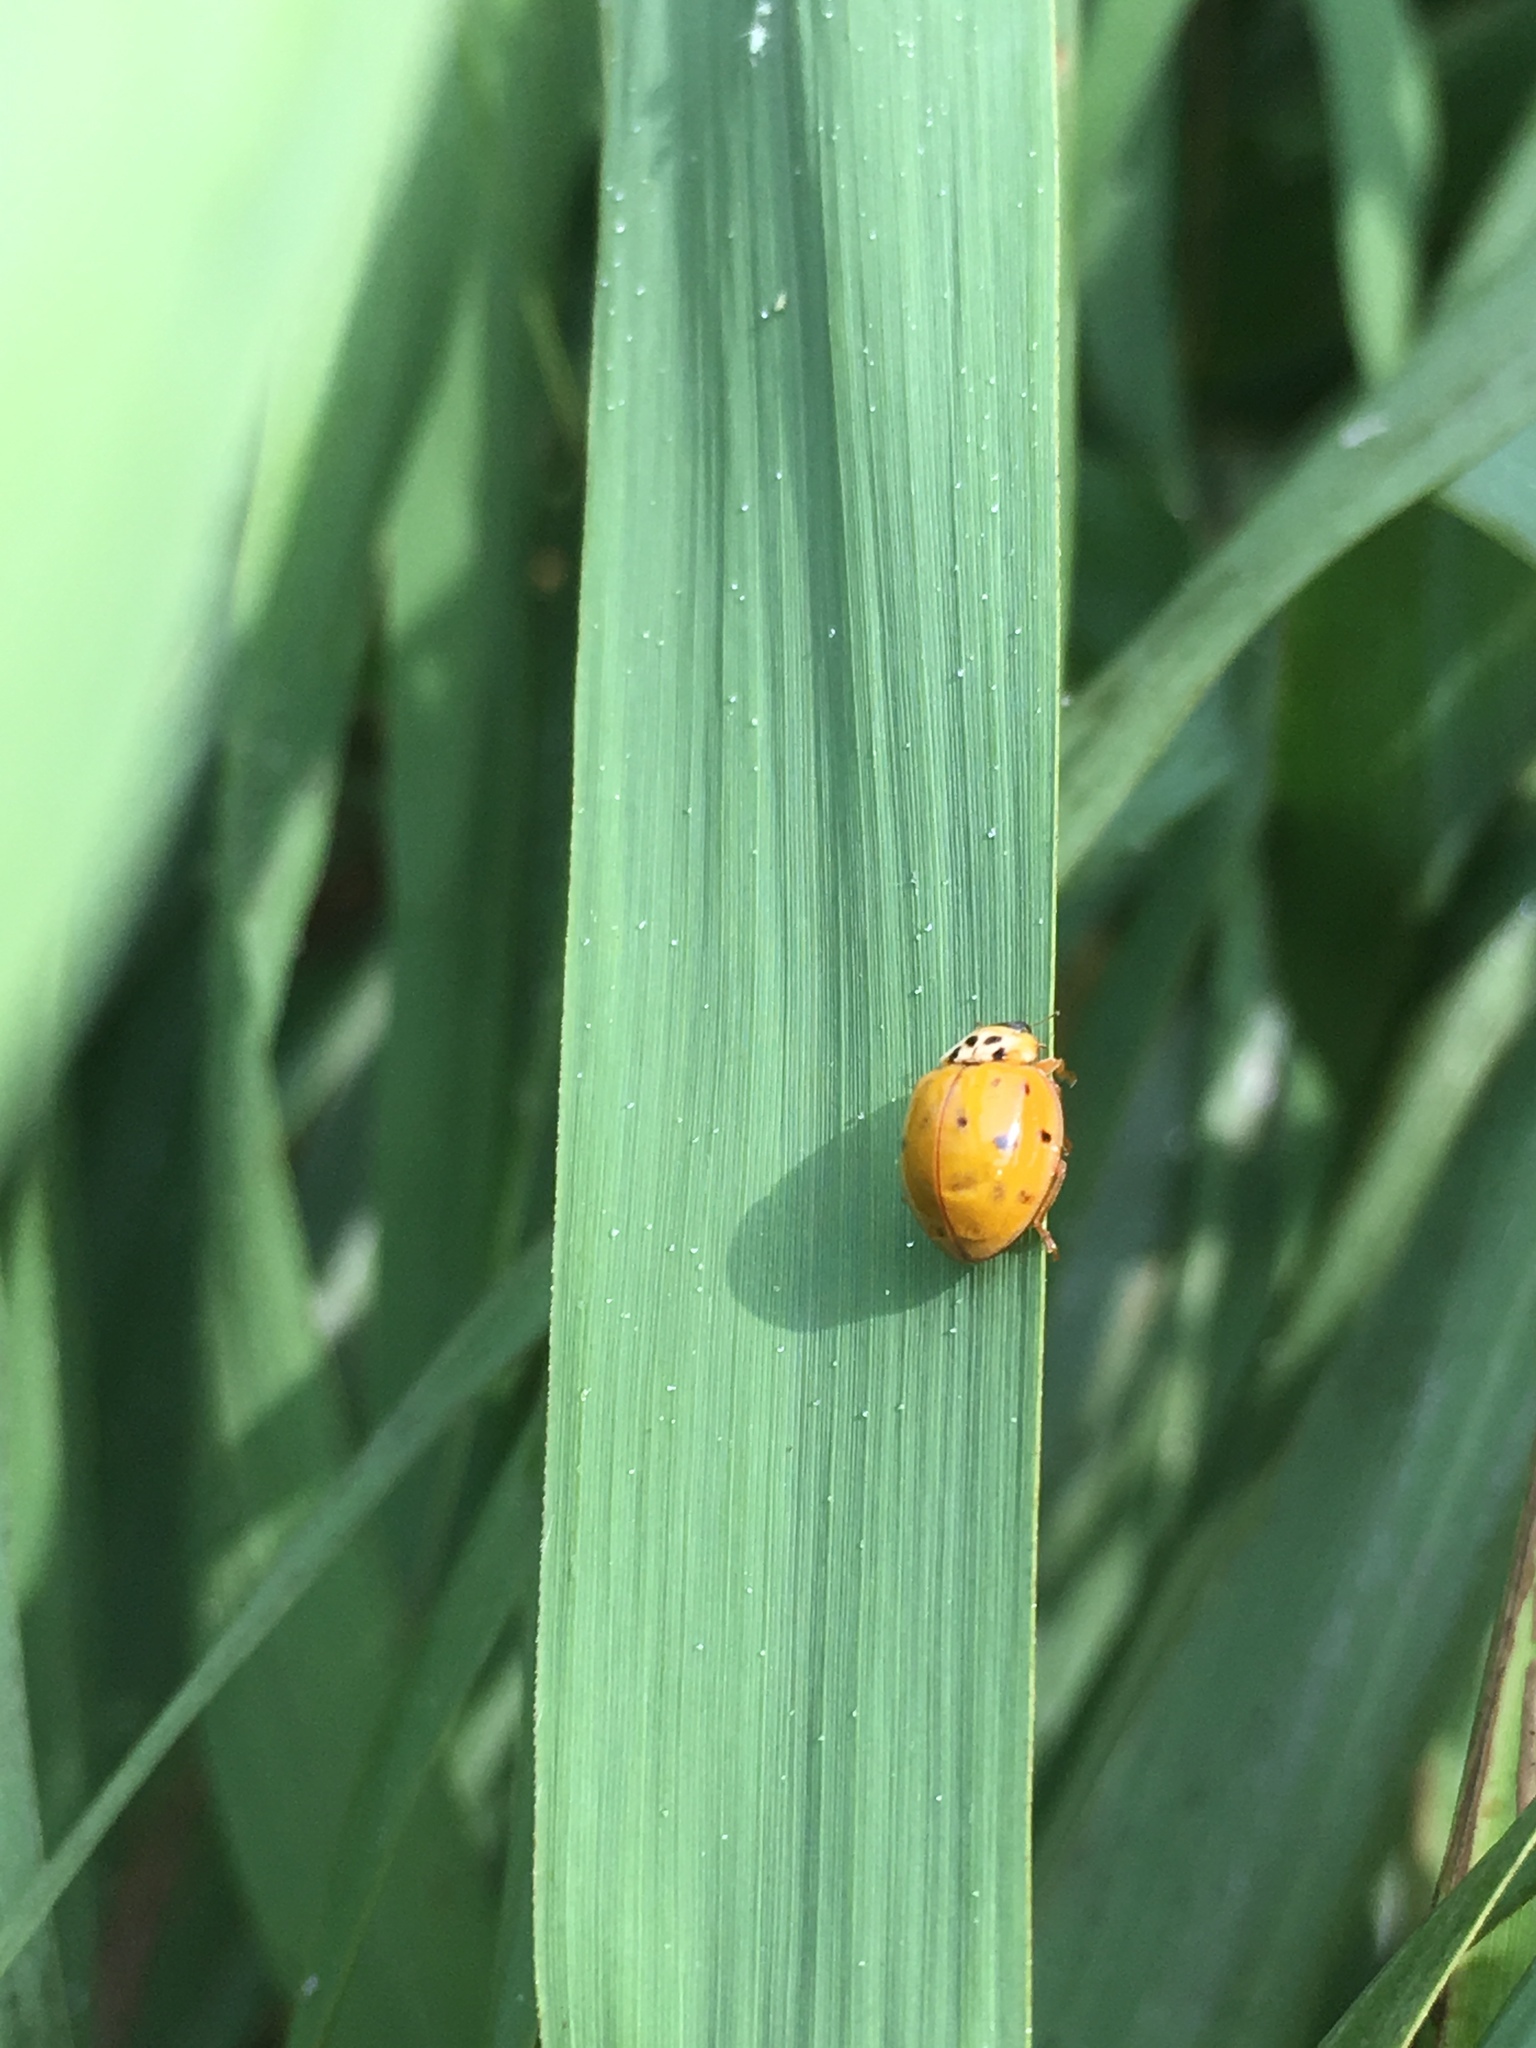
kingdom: Animalia
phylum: Arthropoda
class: Insecta
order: Coleoptera
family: Coccinellidae
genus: Harmonia
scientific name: Harmonia axyridis
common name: Harlequin ladybird
